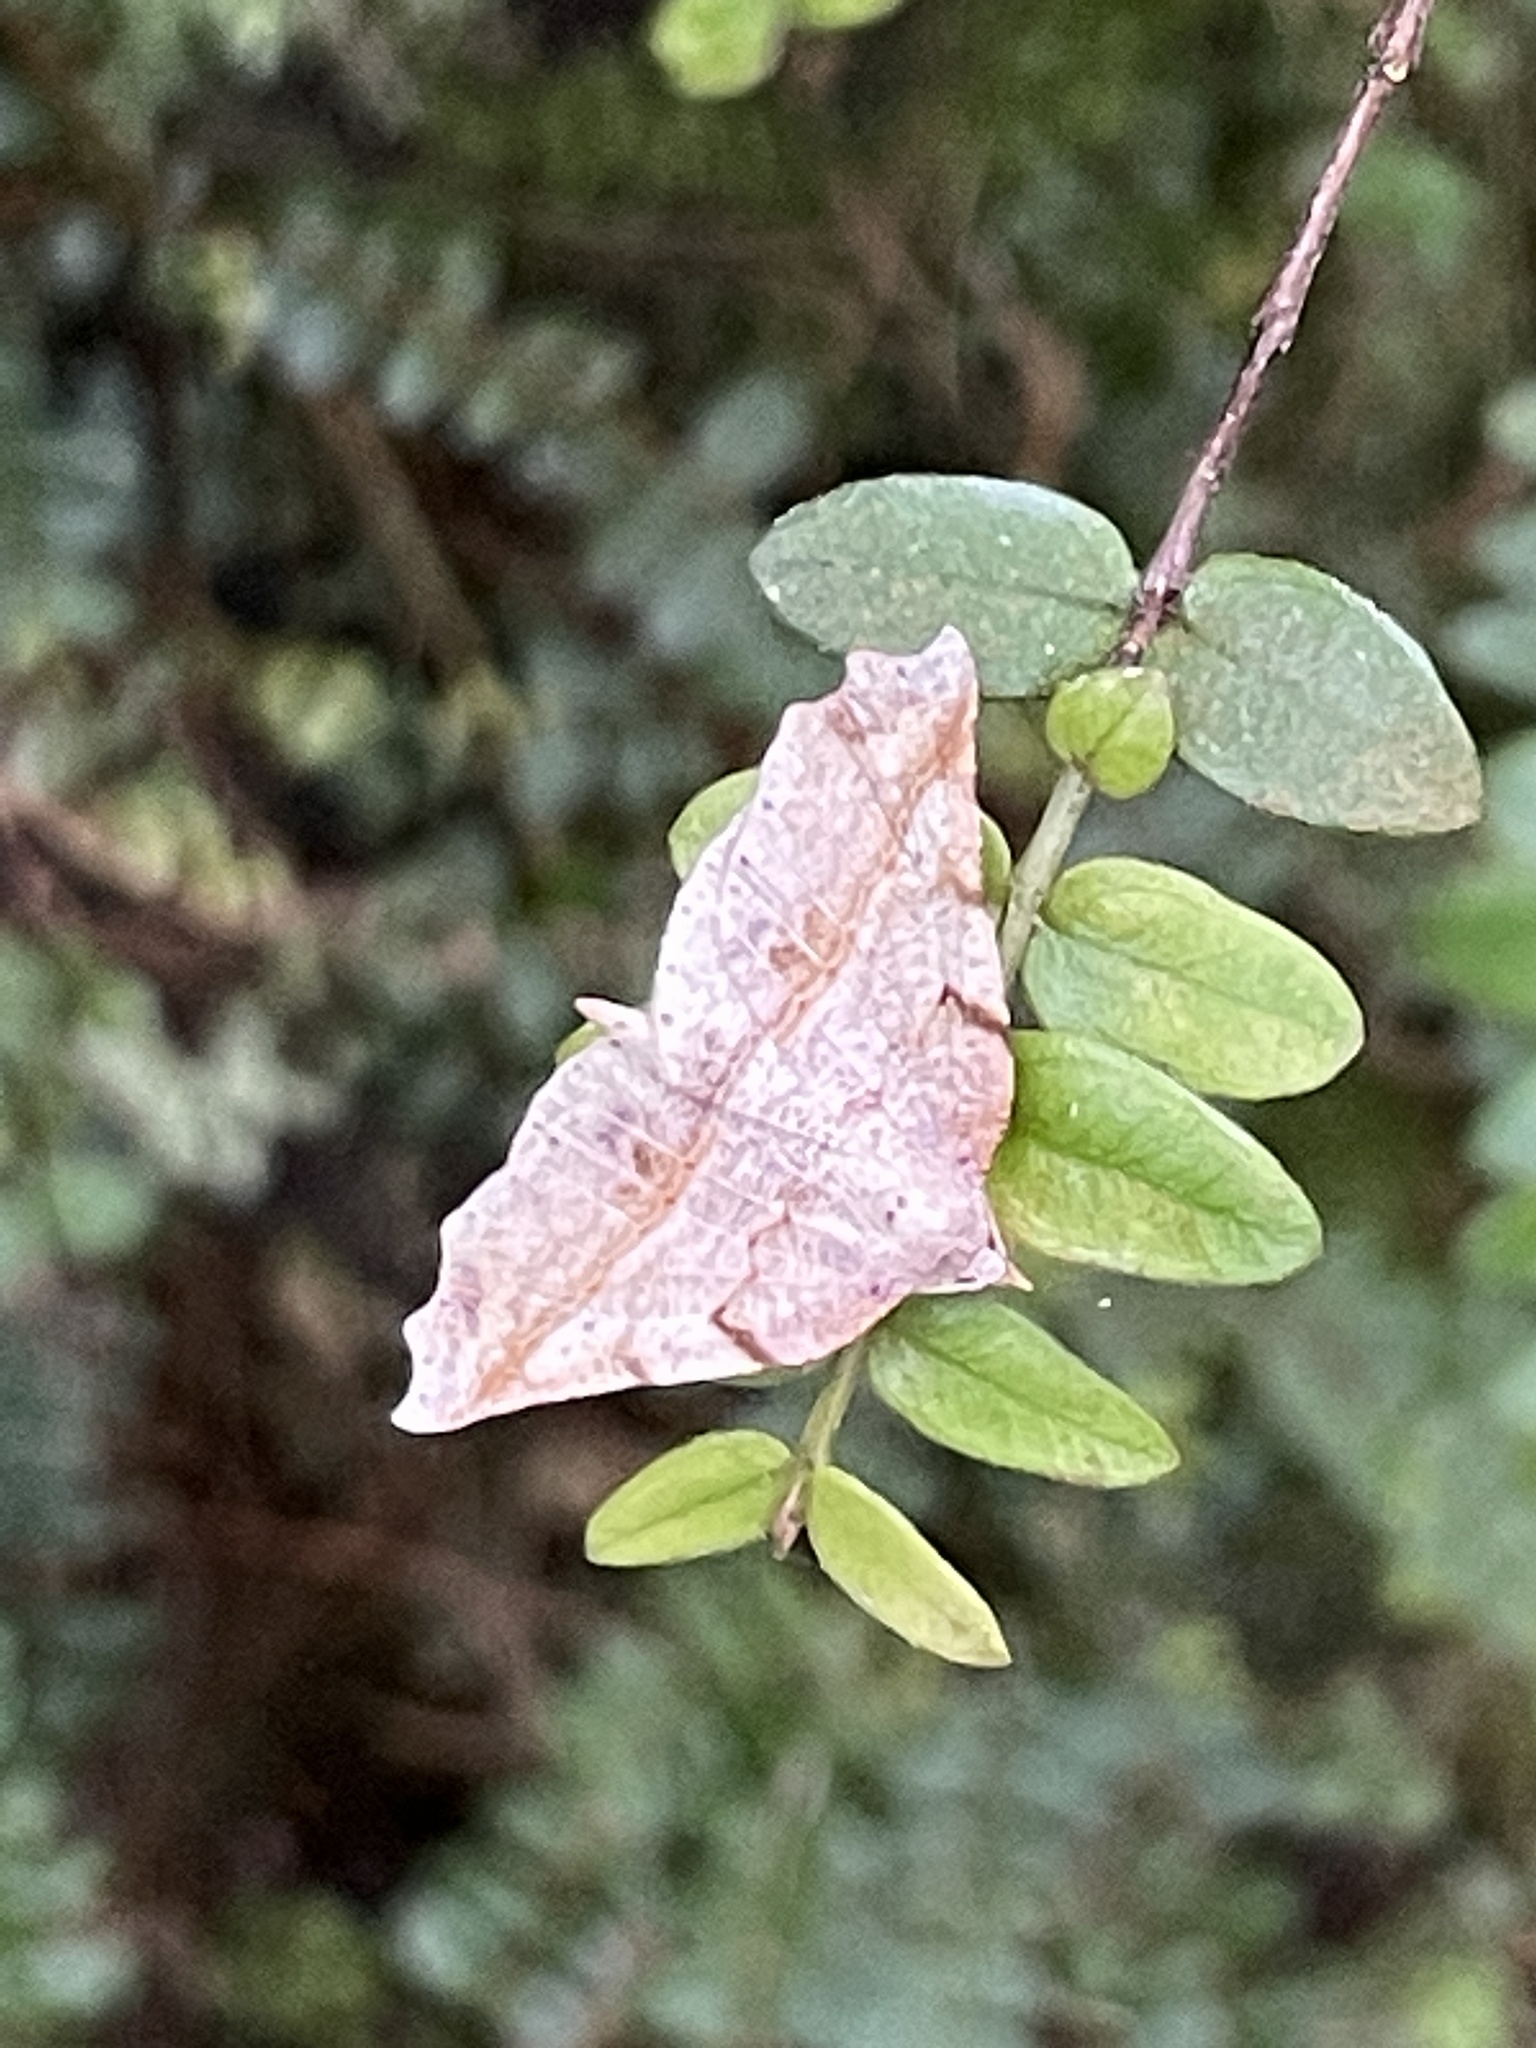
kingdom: Animalia
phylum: Arthropoda
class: Insecta
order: Lepidoptera
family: Geometridae
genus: Ischalis
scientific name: Ischalis gallaria
